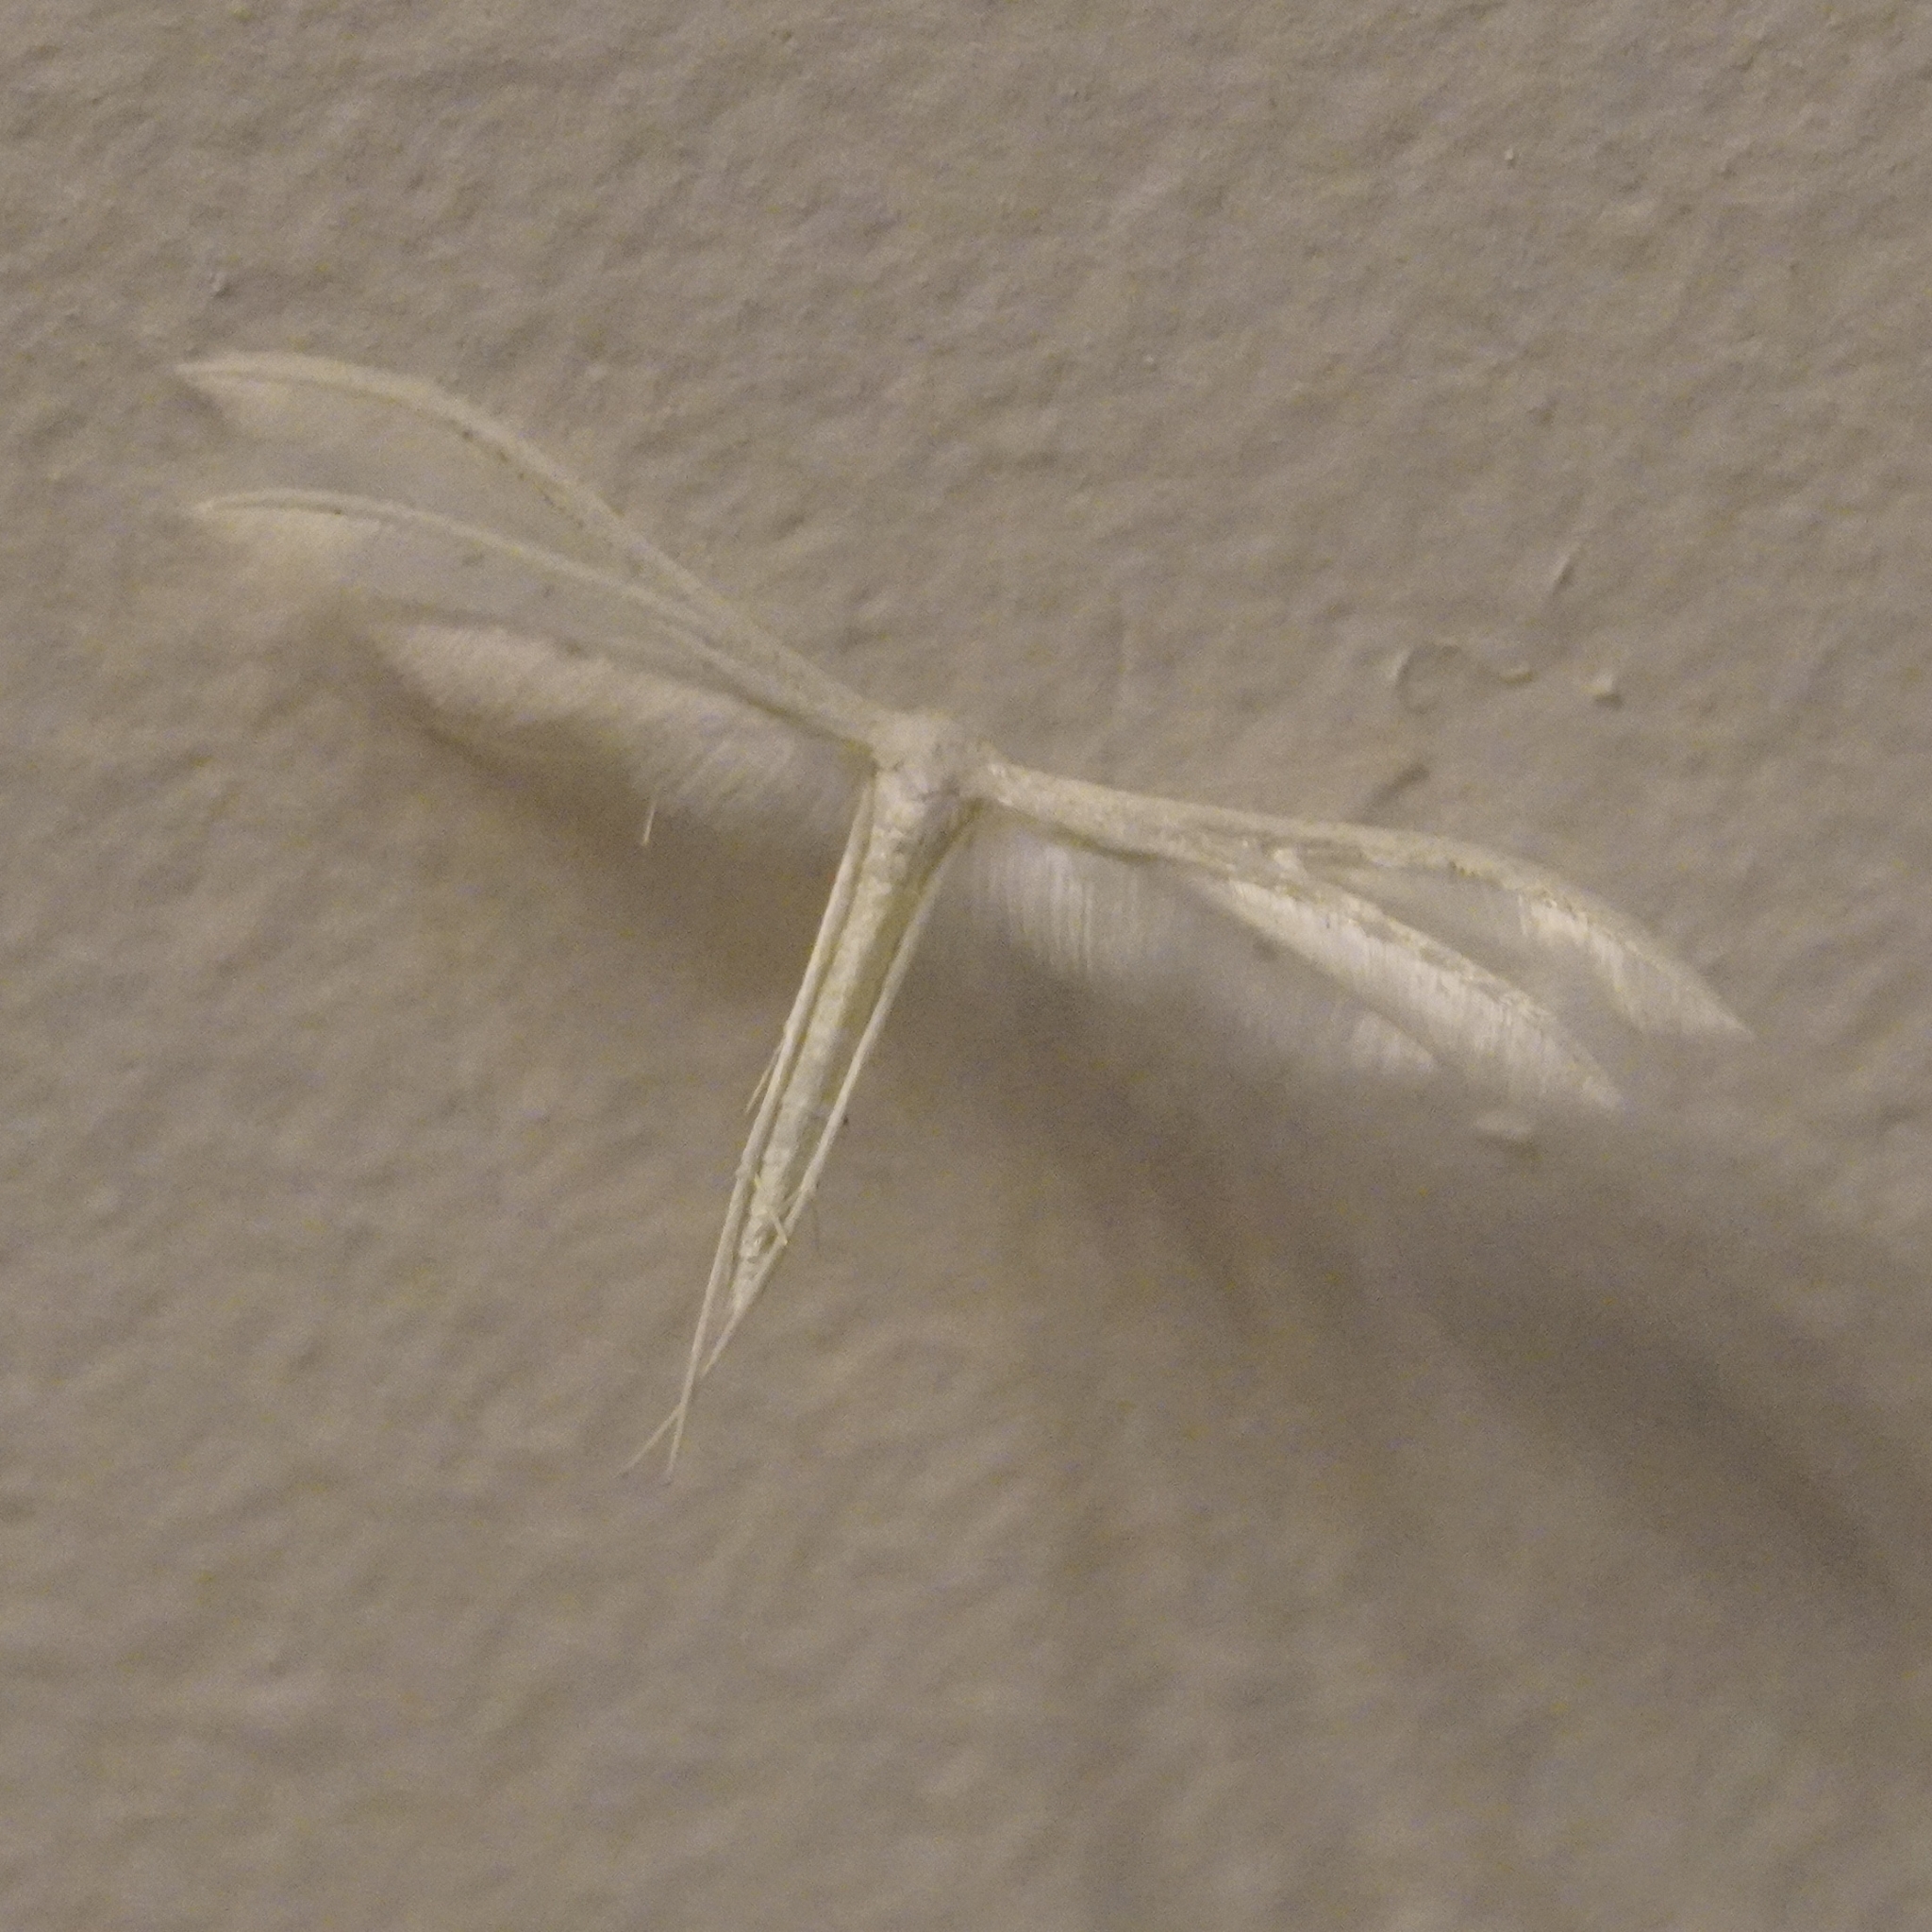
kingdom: Animalia
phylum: Arthropoda
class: Insecta
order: Lepidoptera
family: Pterophoridae
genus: Pterophorus
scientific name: Pterophorus pentadactyla
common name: White plume moth
